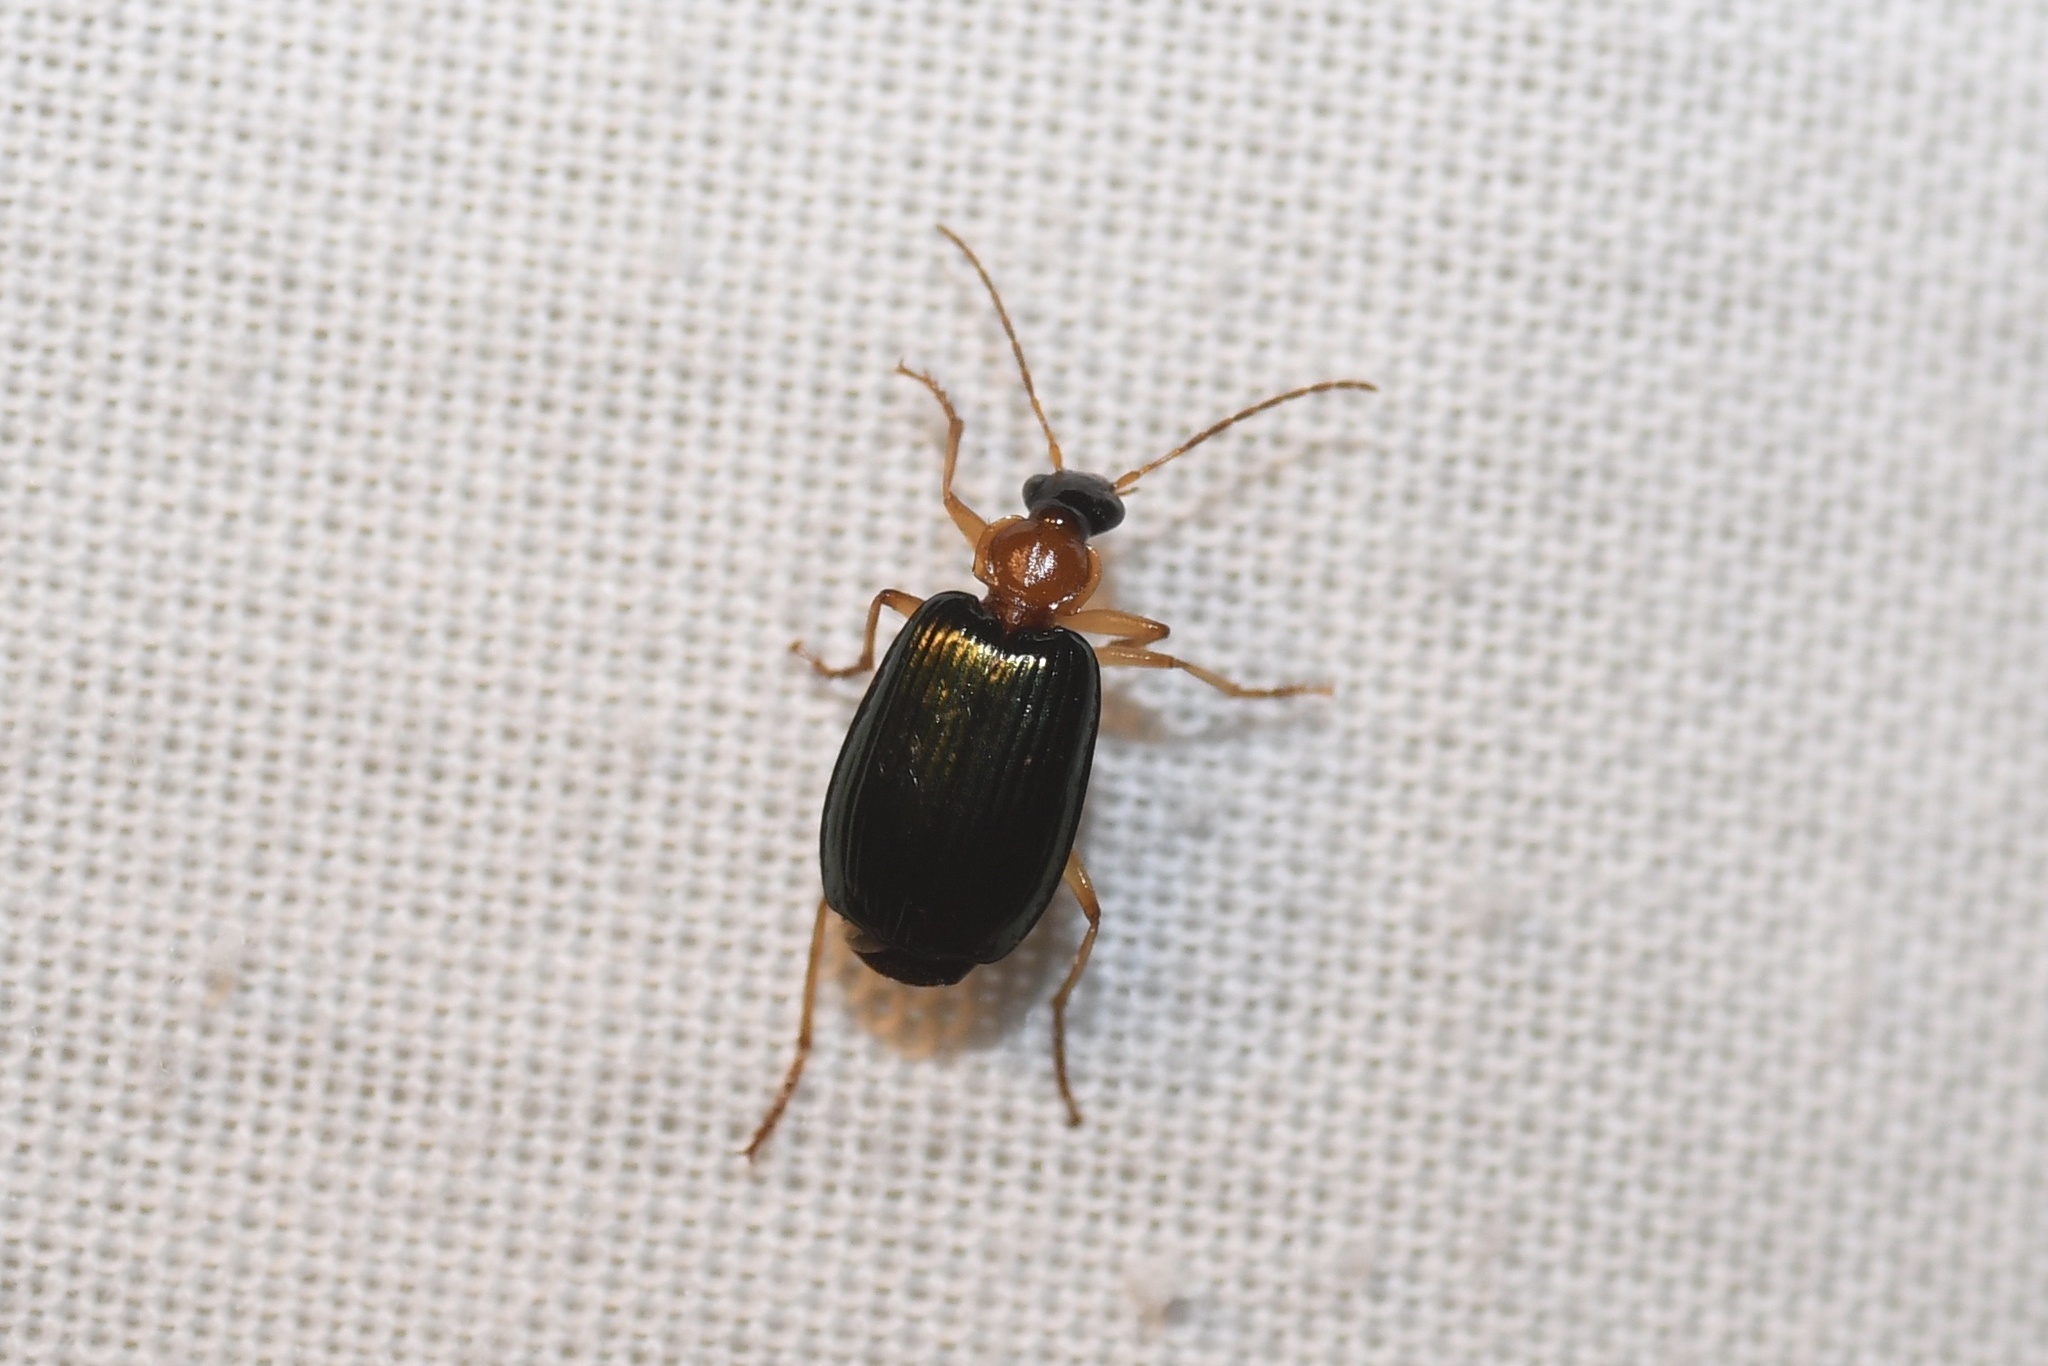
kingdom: Animalia
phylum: Arthropoda
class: Insecta
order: Coleoptera
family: Carabidae
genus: Lebia
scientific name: Lebia tricolor
